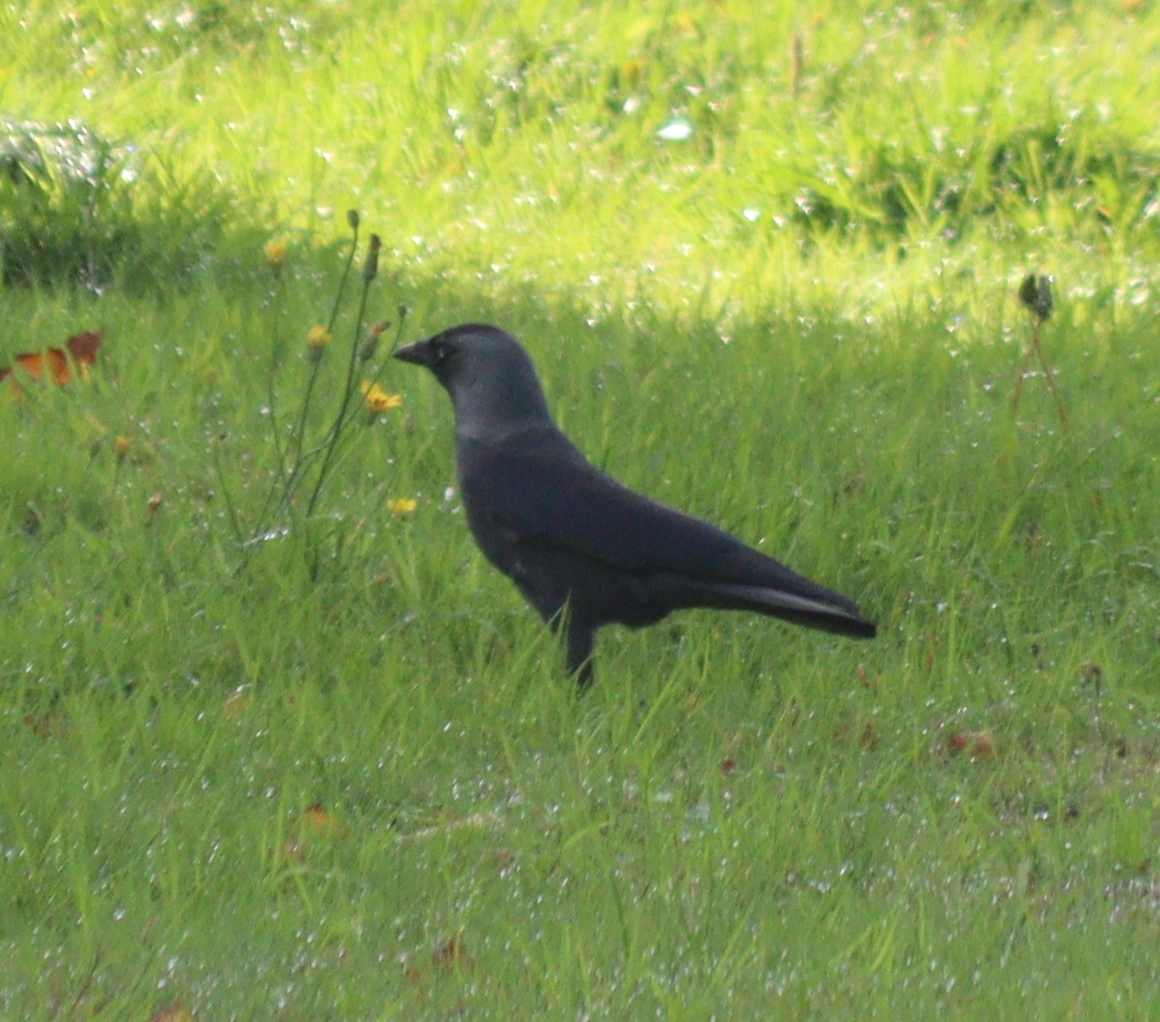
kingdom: Animalia
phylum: Chordata
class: Aves
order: Passeriformes
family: Corvidae
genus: Coloeus
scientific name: Coloeus monedula
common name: Western jackdaw
